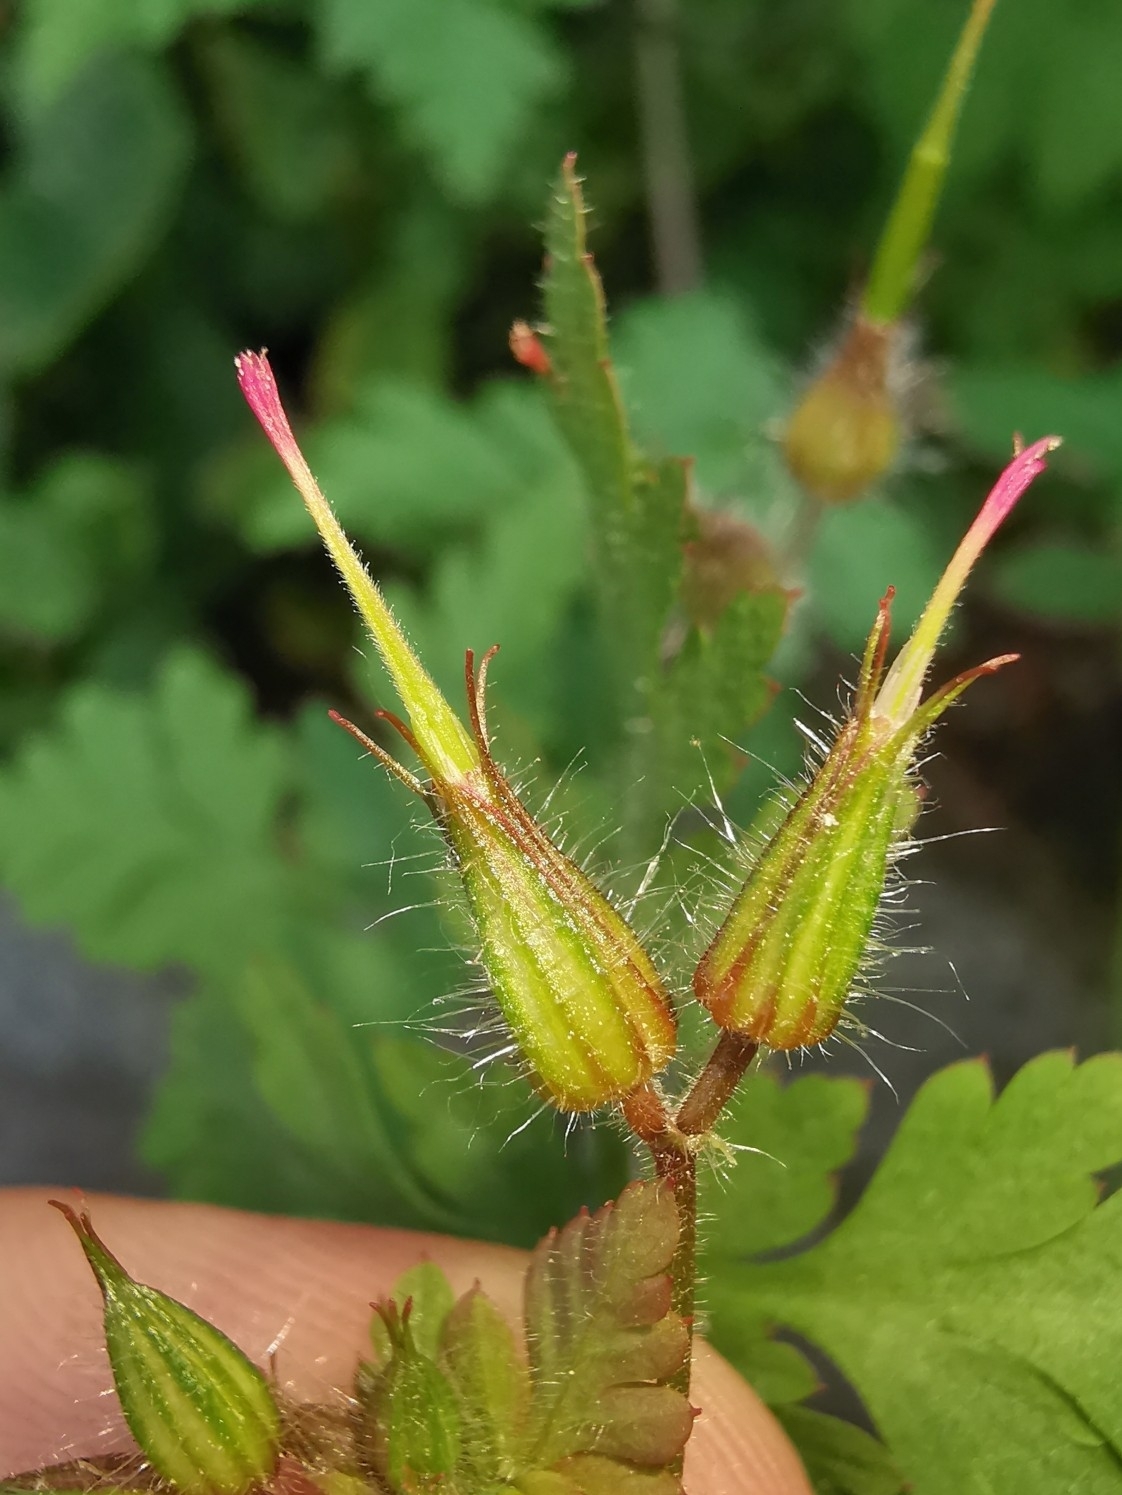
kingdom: Plantae
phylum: Tracheophyta
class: Magnoliopsida
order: Geraniales
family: Geraniaceae
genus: Geranium
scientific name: Geranium robertianum
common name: Herb-robert
